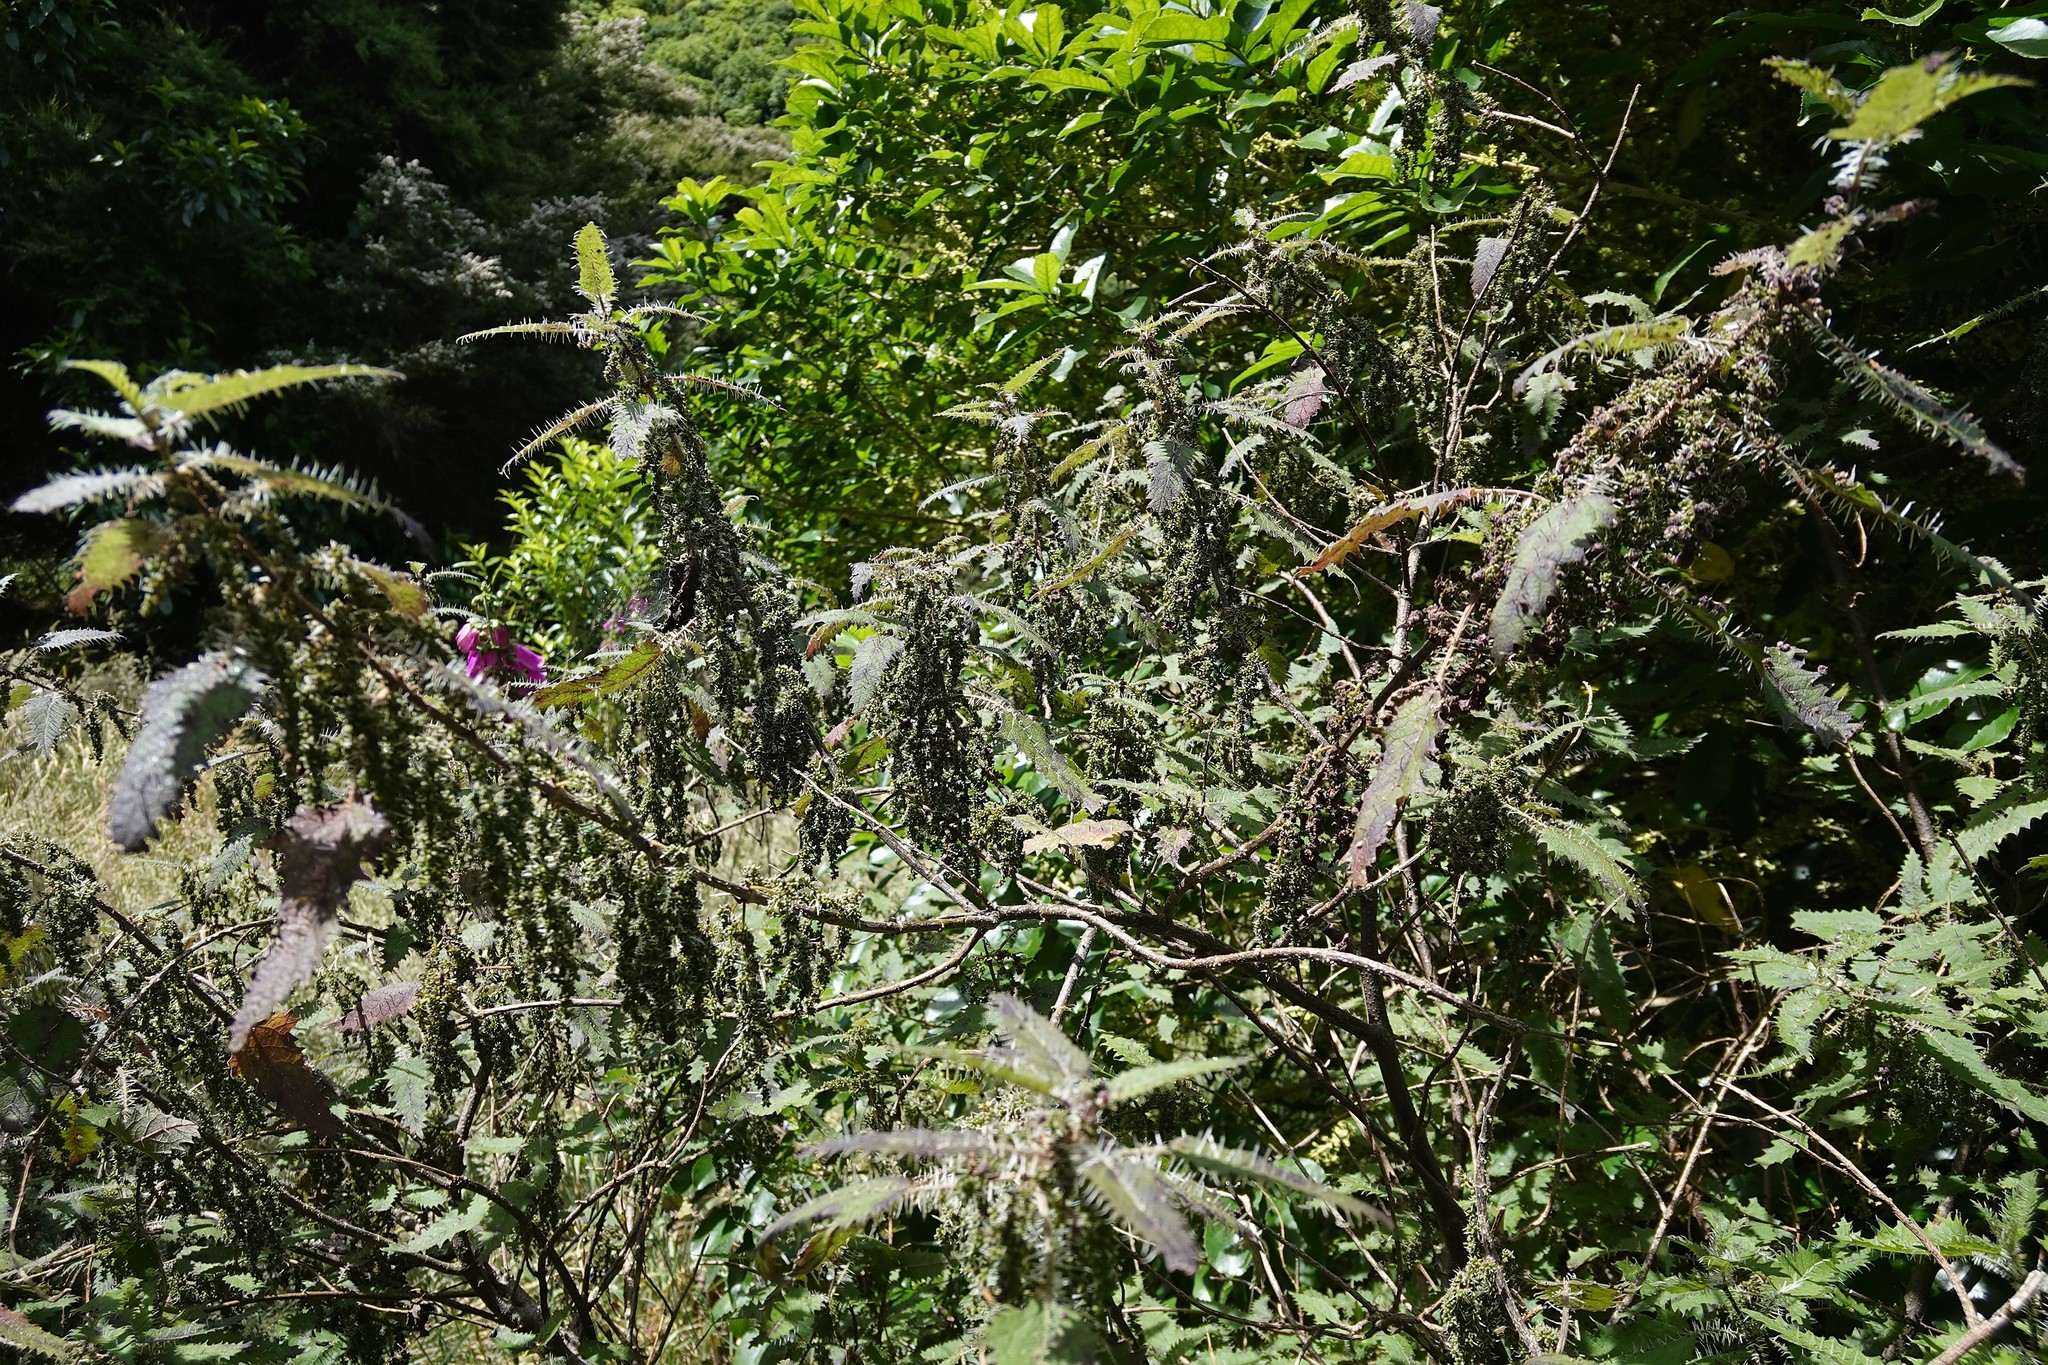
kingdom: Plantae
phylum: Tracheophyta
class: Magnoliopsida
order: Rosales
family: Urticaceae
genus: Urtica
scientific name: Urtica ferox
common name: Tree nettle
